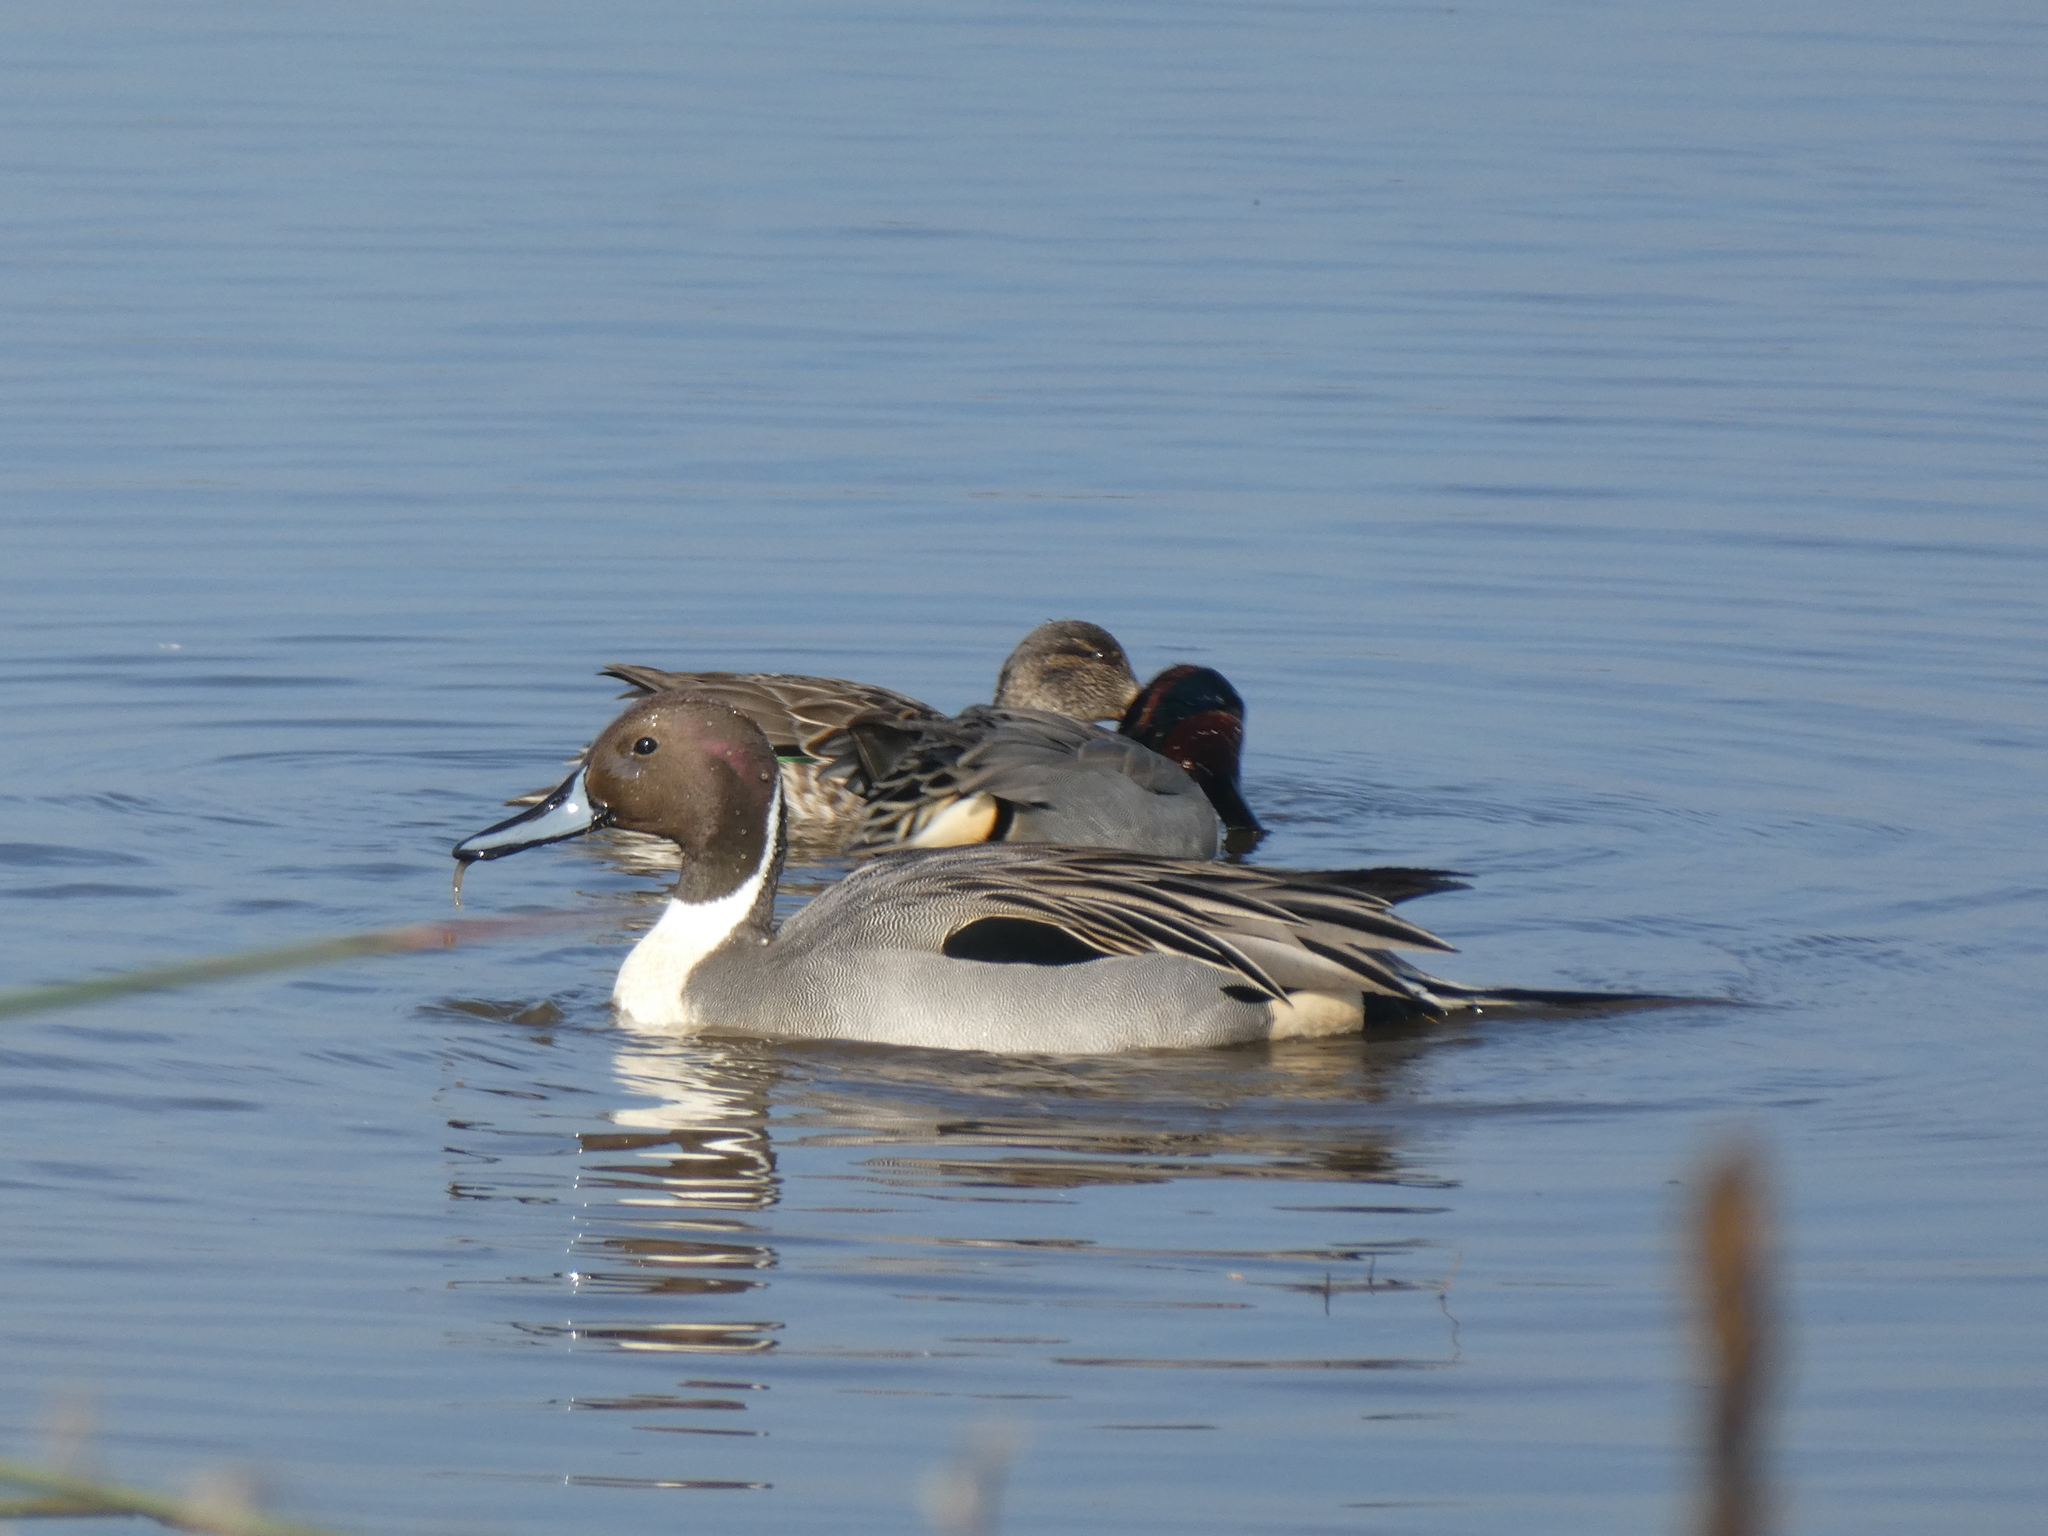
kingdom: Animalia
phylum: Chordata
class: Aves
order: Anseriformes
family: Anatidae
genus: Anas
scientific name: Anas acuta
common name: Northern pintail
